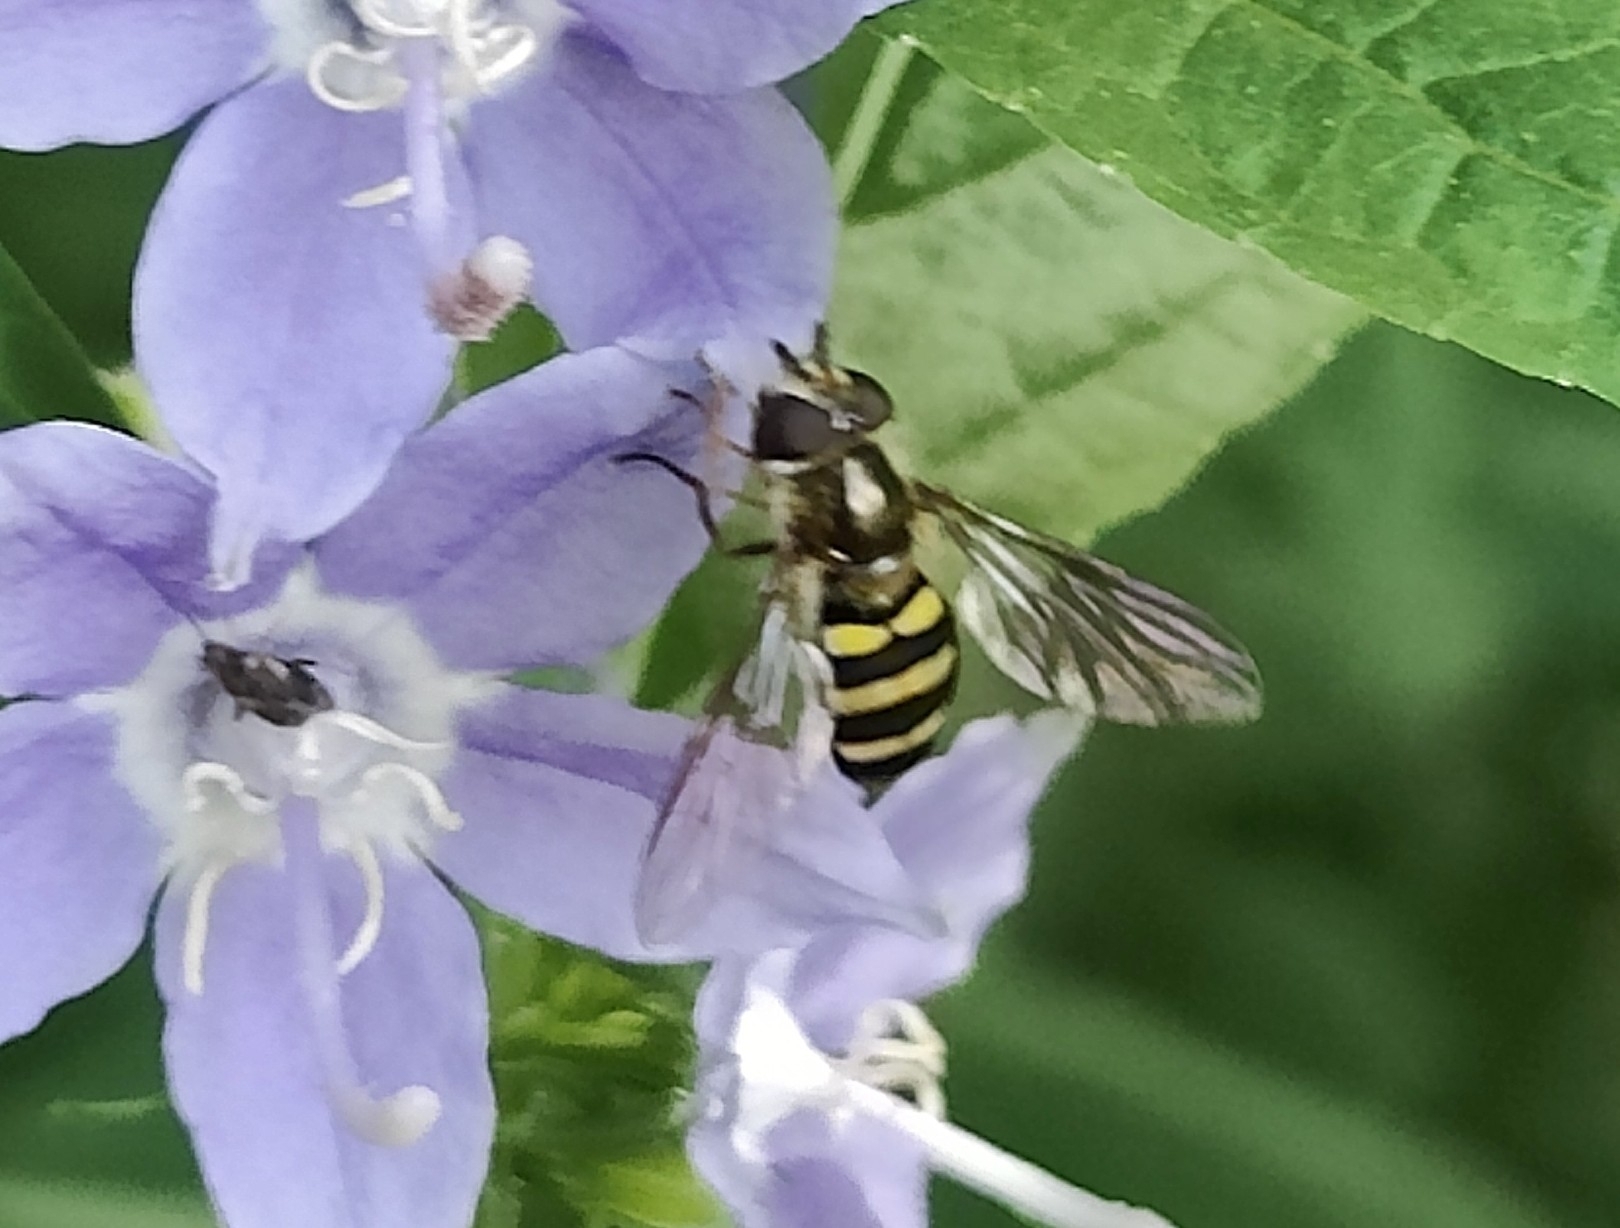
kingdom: Animalia
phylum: Arthropoda
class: Insecta
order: Diptera
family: Syrphidae
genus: Eupeodes
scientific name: Eupeodes
